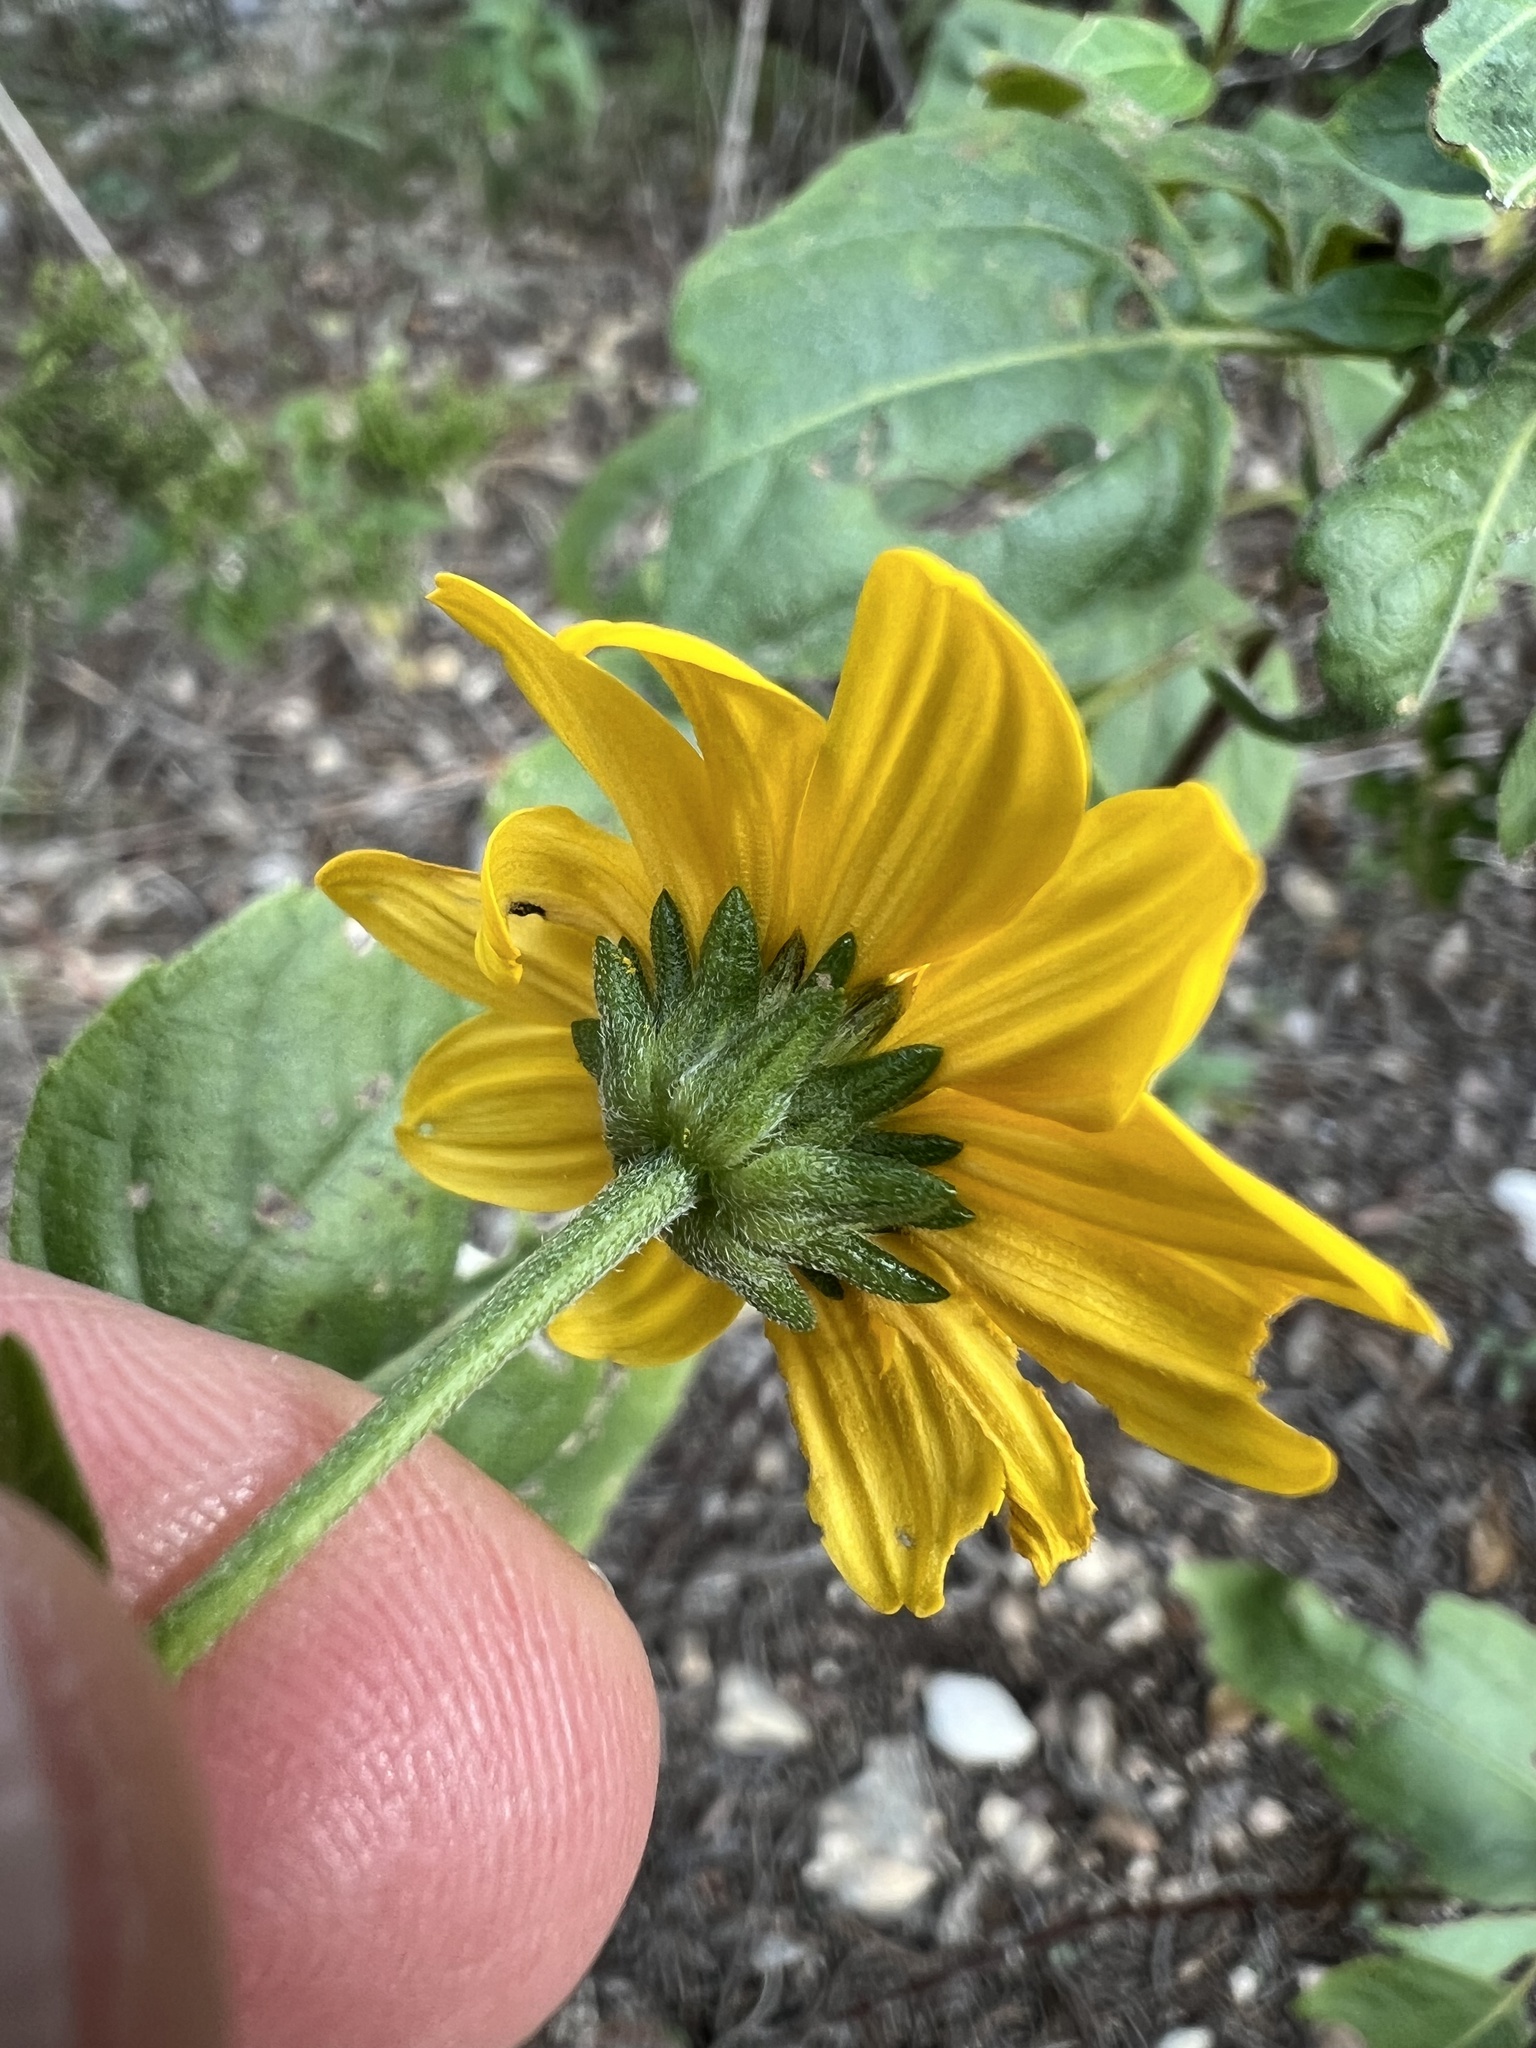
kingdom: Plantae
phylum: Tracheophyta
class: Magnoliopsida
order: Asterales
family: Asteraceae
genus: Viguiera
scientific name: Viguiera dentata
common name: Toothleaf
